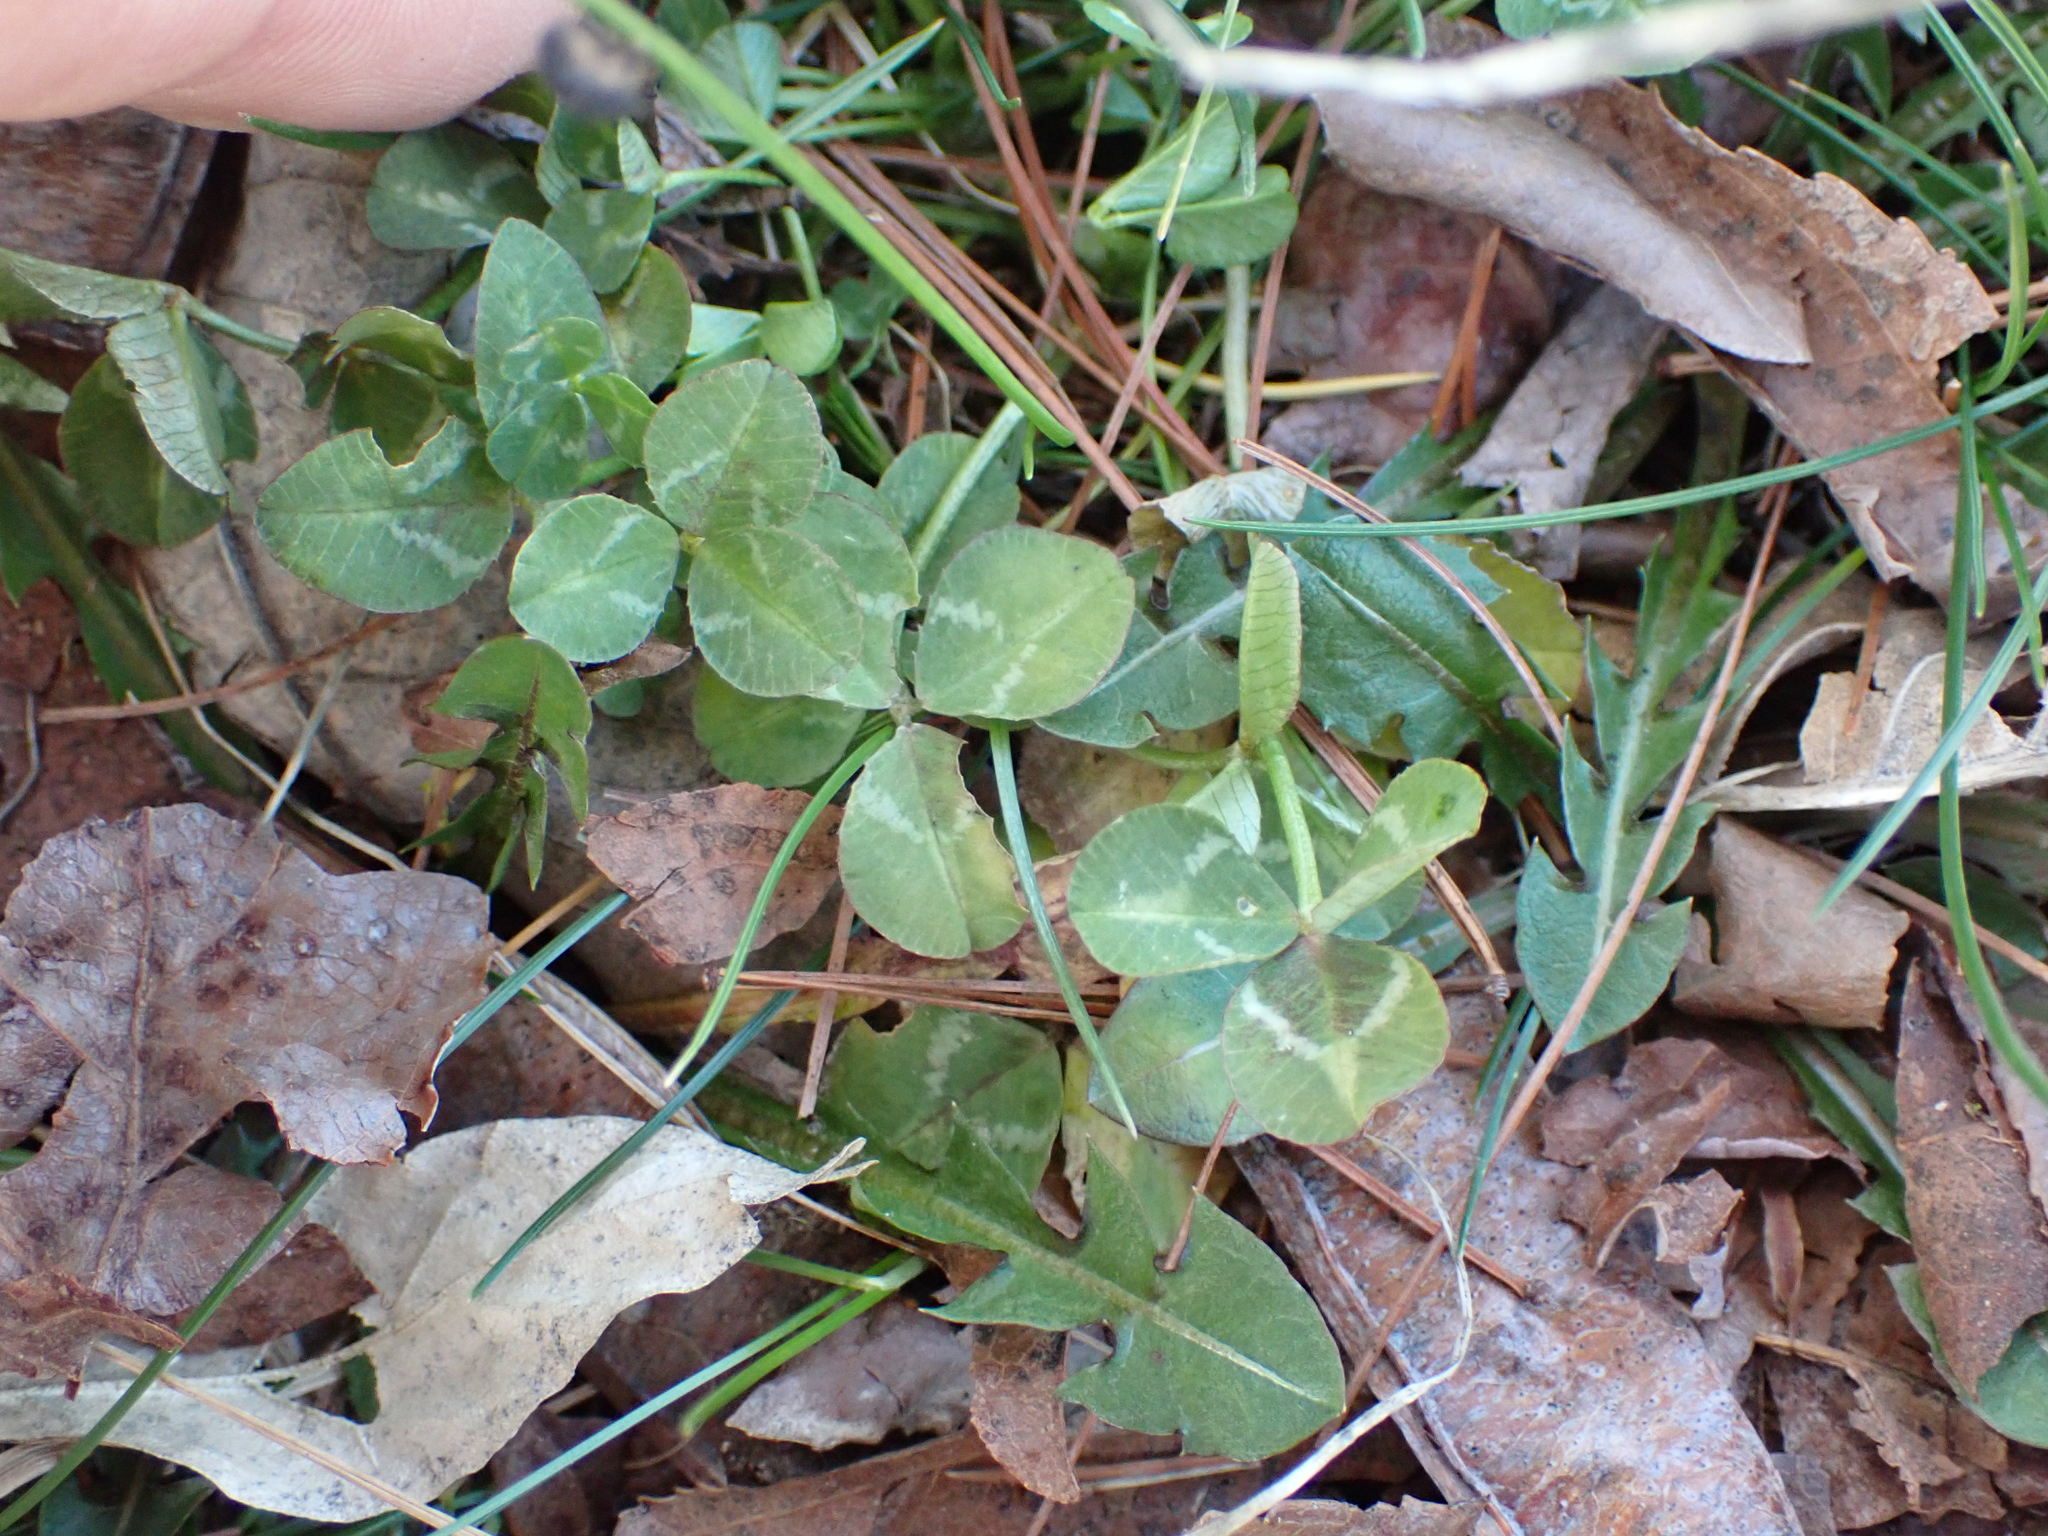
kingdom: Plantae
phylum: Tracheophyta
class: Magnoliopsida
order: Fabales
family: Fabaceae
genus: Trifolium
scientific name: Trifolium repens
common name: White clover
